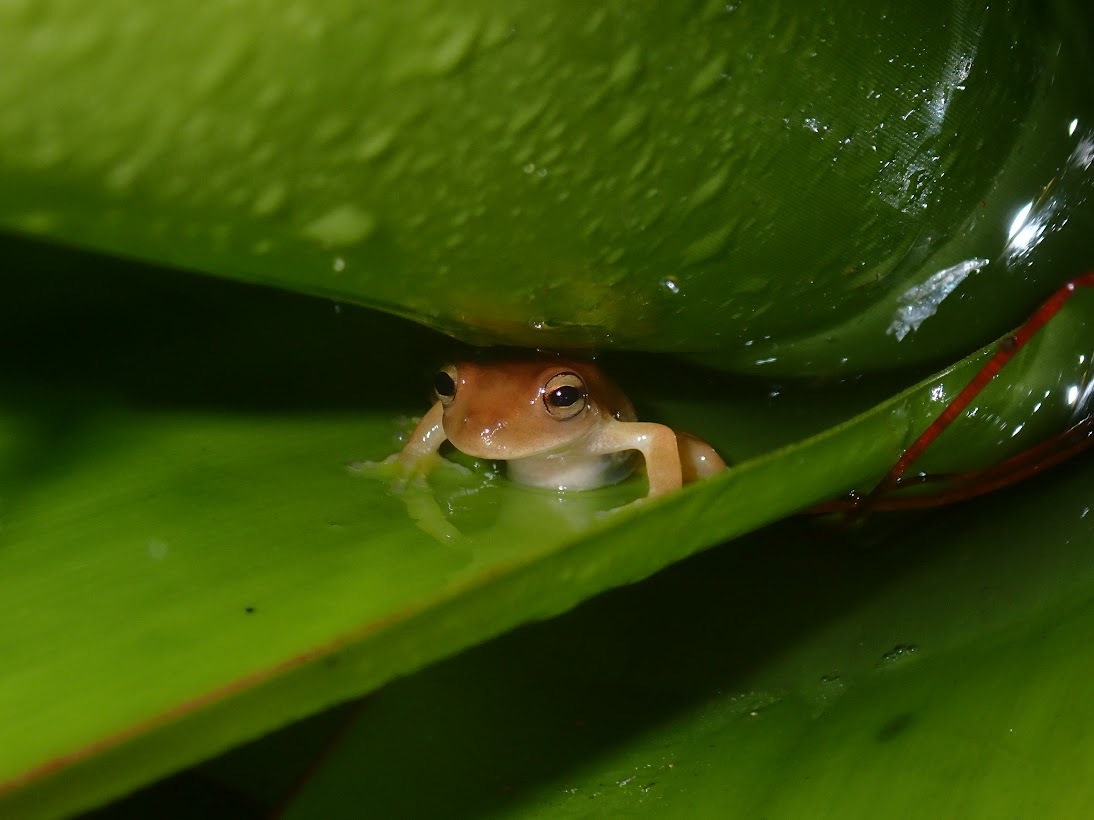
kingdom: Animalia
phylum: Chordata
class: Amphibia
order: Anura
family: Hylidae
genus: Bromeliohyla
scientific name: Bromeliohyla bromeliacia
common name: Bromeliad treefrog
